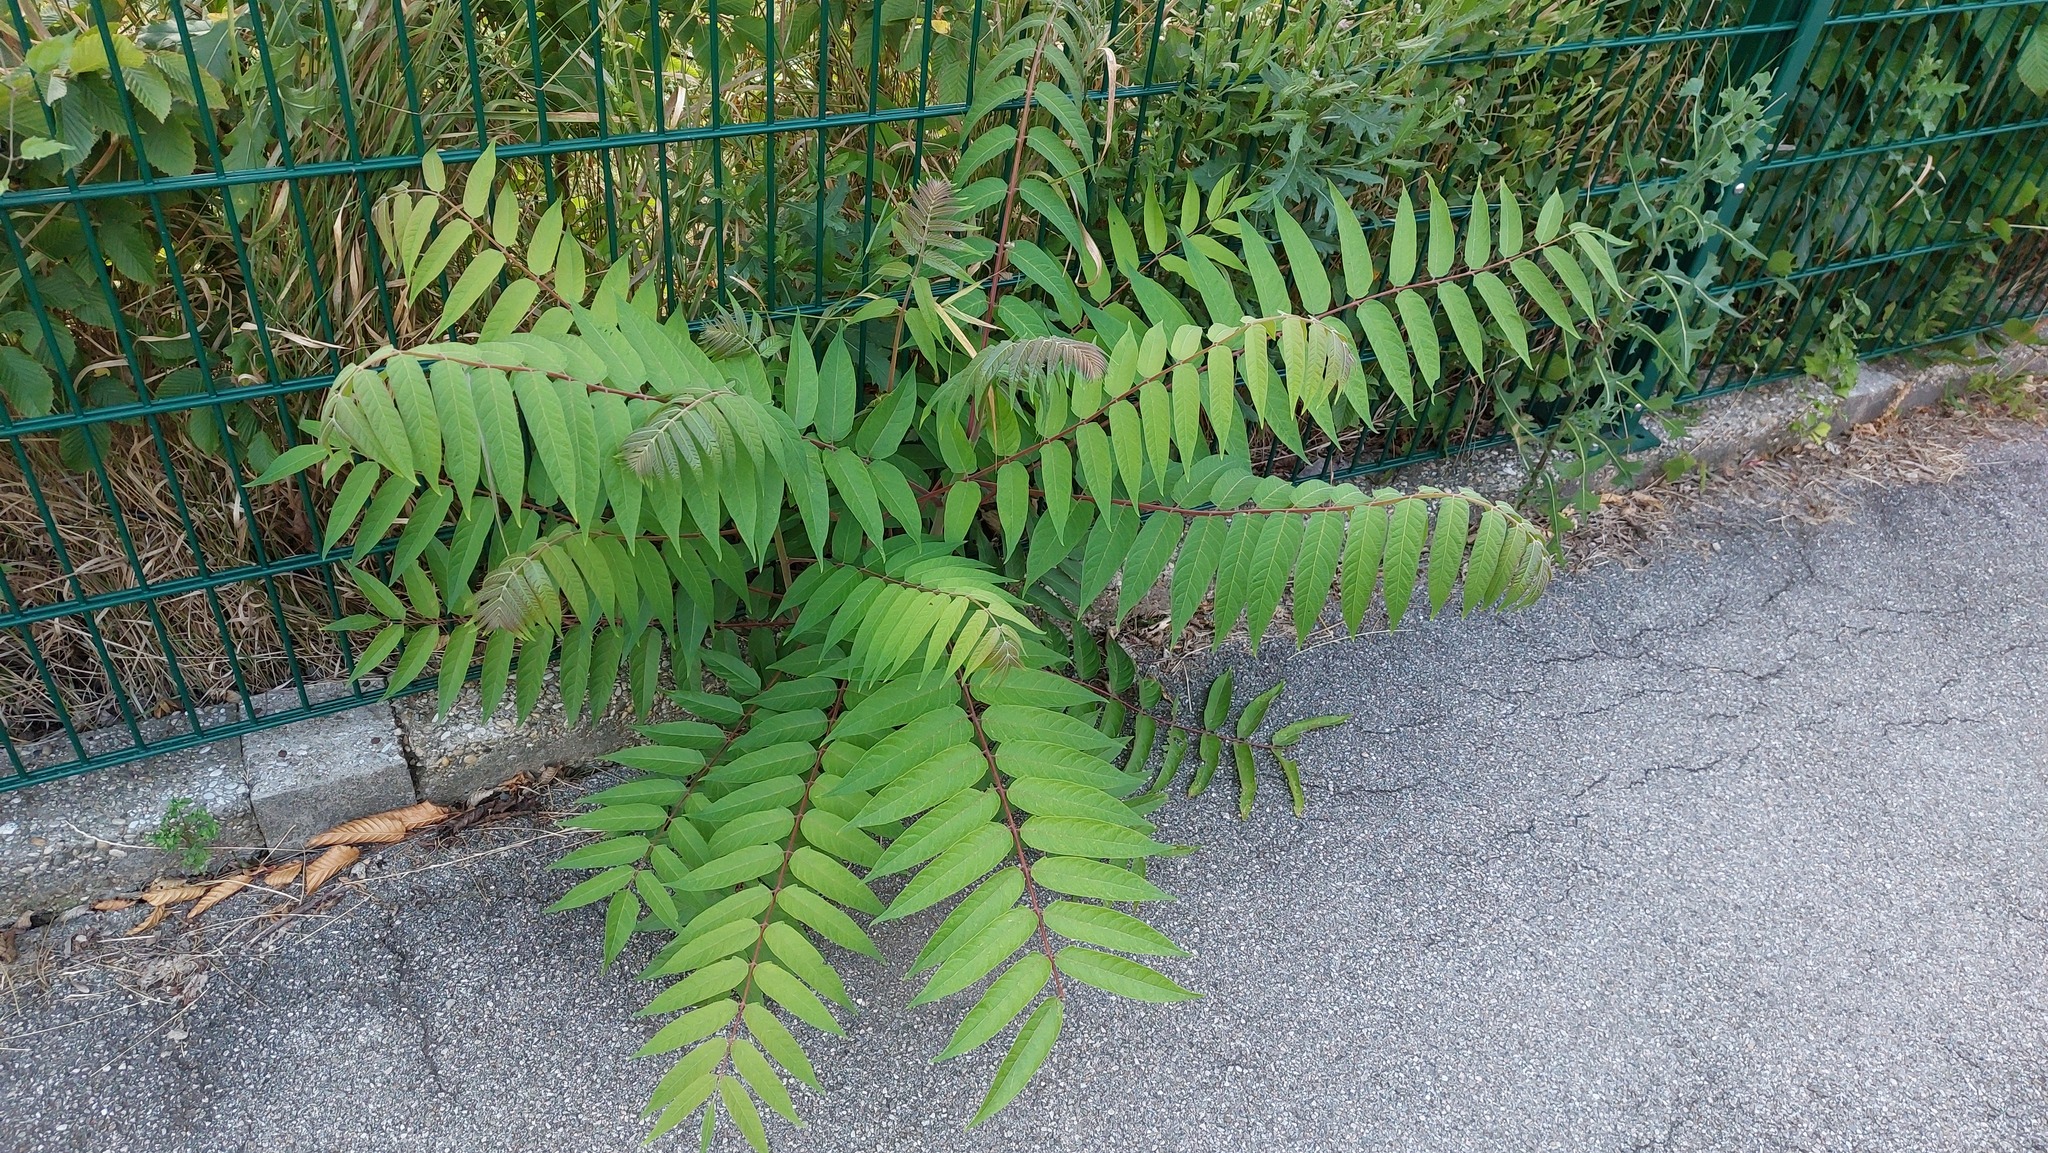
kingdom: Plantae
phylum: Tracheophyta
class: Magnoliopsida
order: Sapindales
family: Simaroubaceae
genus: Ailanthus
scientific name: Ailanthus altissima
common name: Tree-of-heaven
